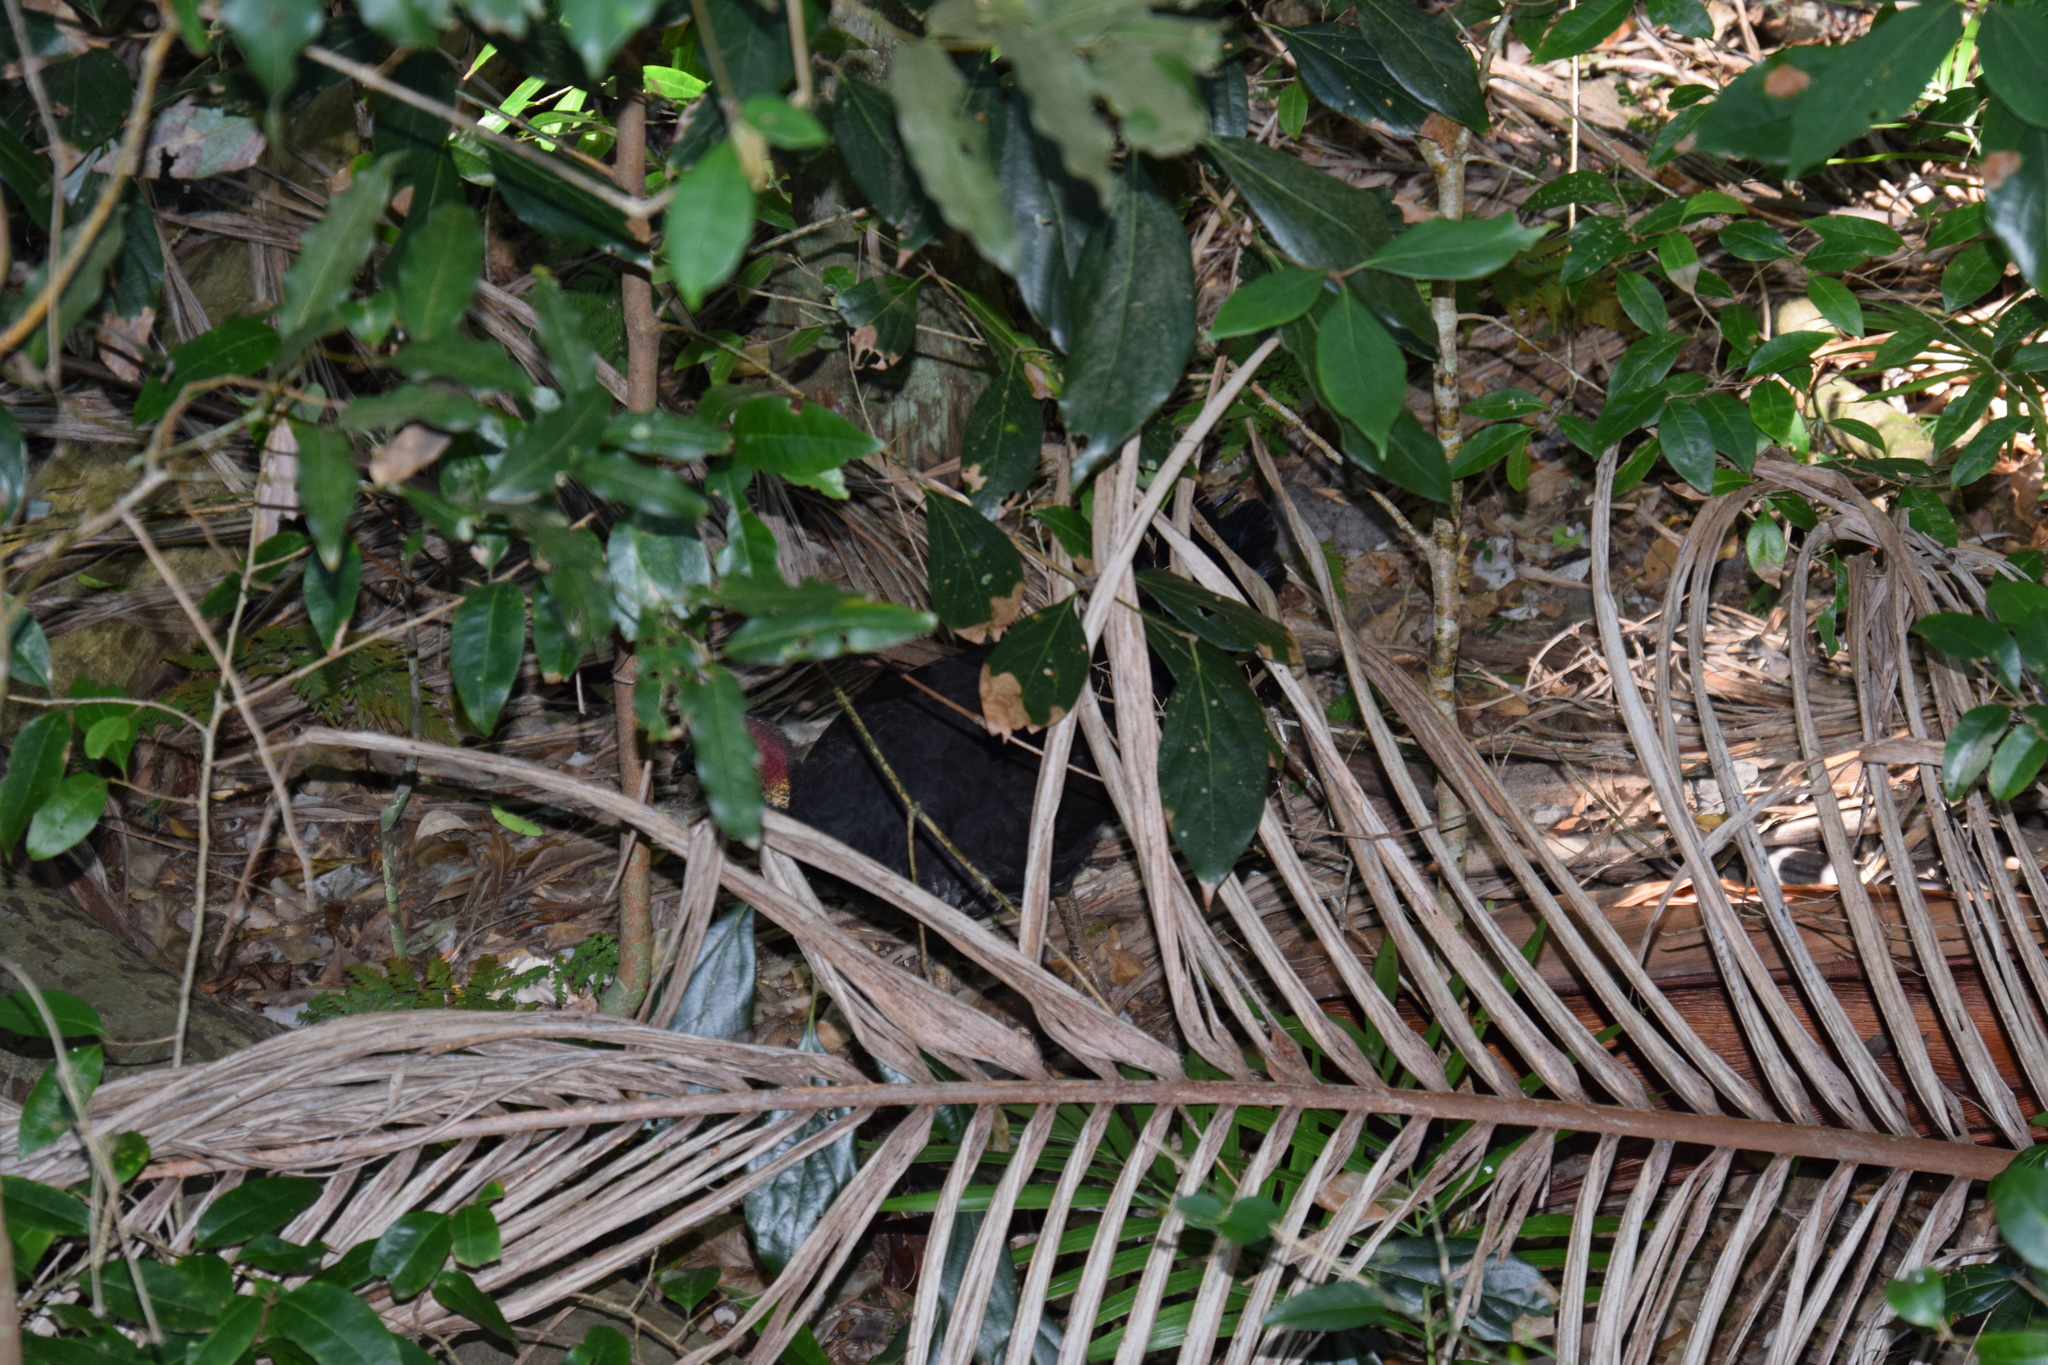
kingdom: Animalia
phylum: Chordata
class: Aves
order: Galliformes
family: Megapodiidae
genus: Alectura
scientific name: Alectura lathami
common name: Australian brushturkey
